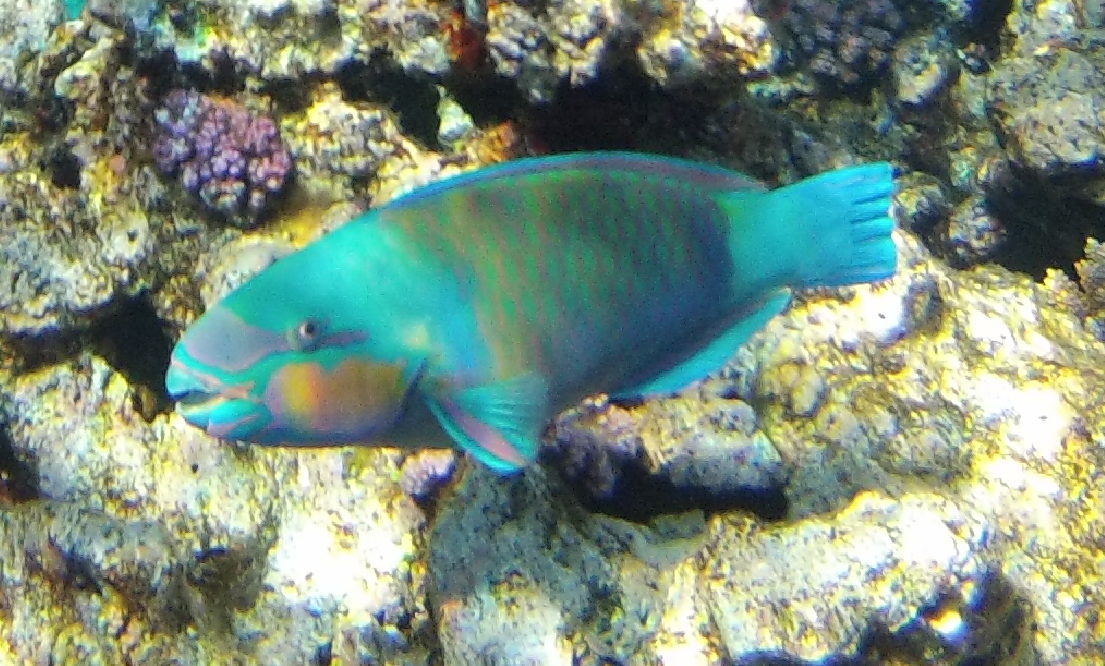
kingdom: Animalia
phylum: Chordata
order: Perciformes
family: Scaridae
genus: Chlorurus
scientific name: Chlorurus sordidus
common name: Bullethead parrotfish
